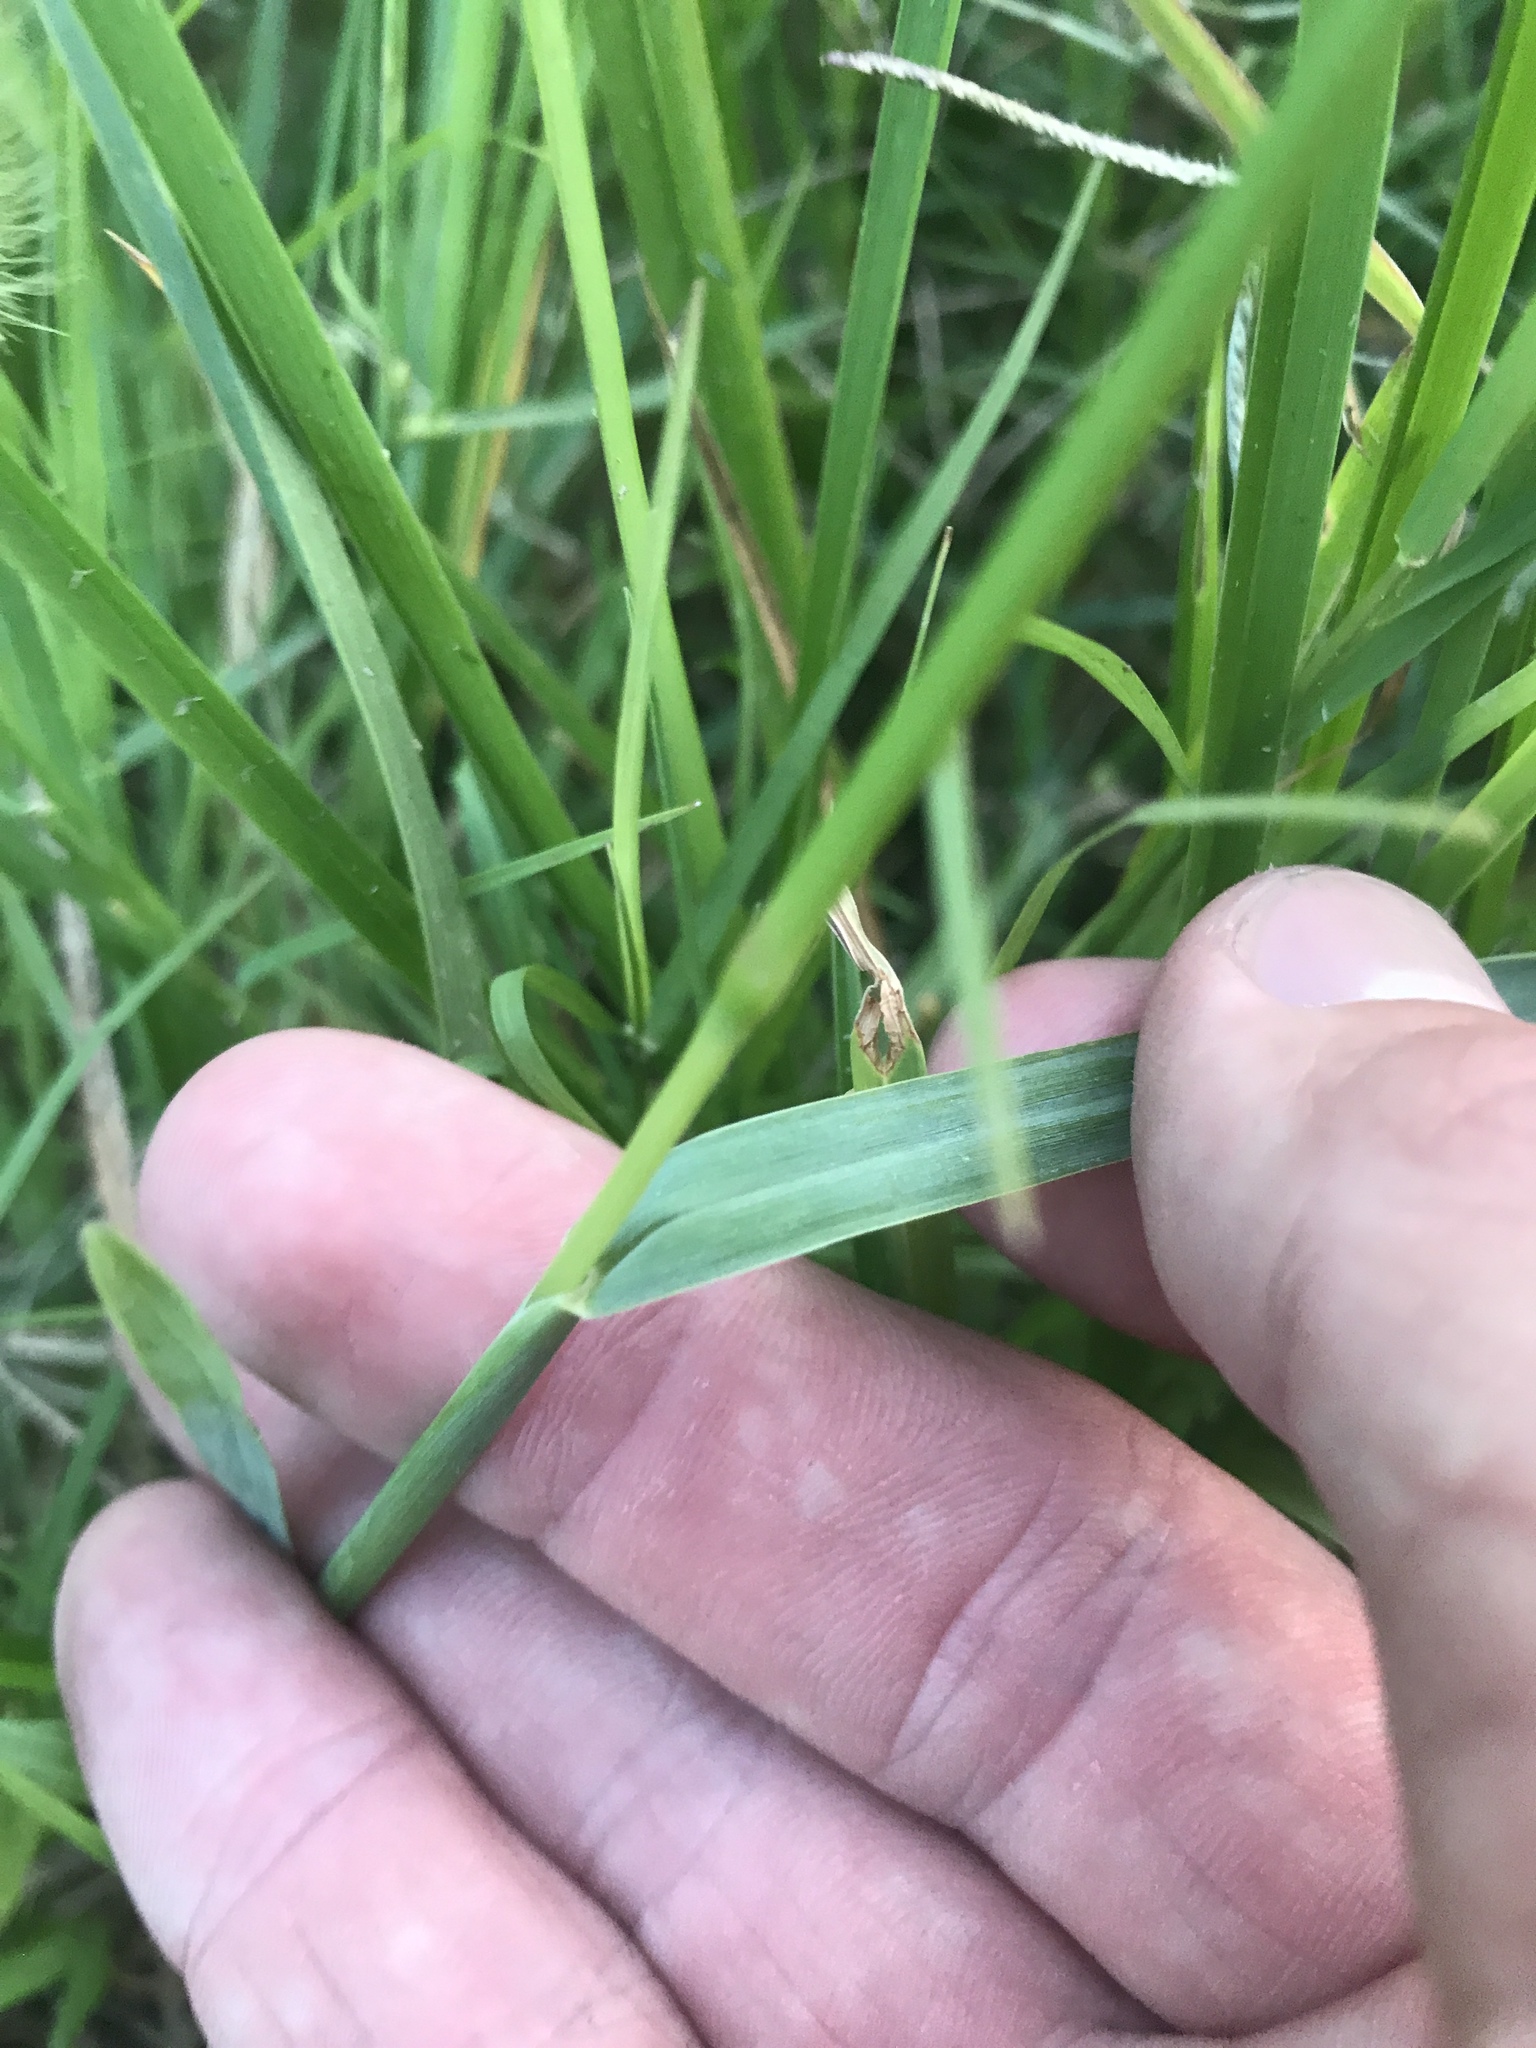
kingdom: Plantae
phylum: Tracheophyta
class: Liliopsida
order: Poales
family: Poaceae
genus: Setaria
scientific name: Setaria parviflora
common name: Knotroot bristle-grass
